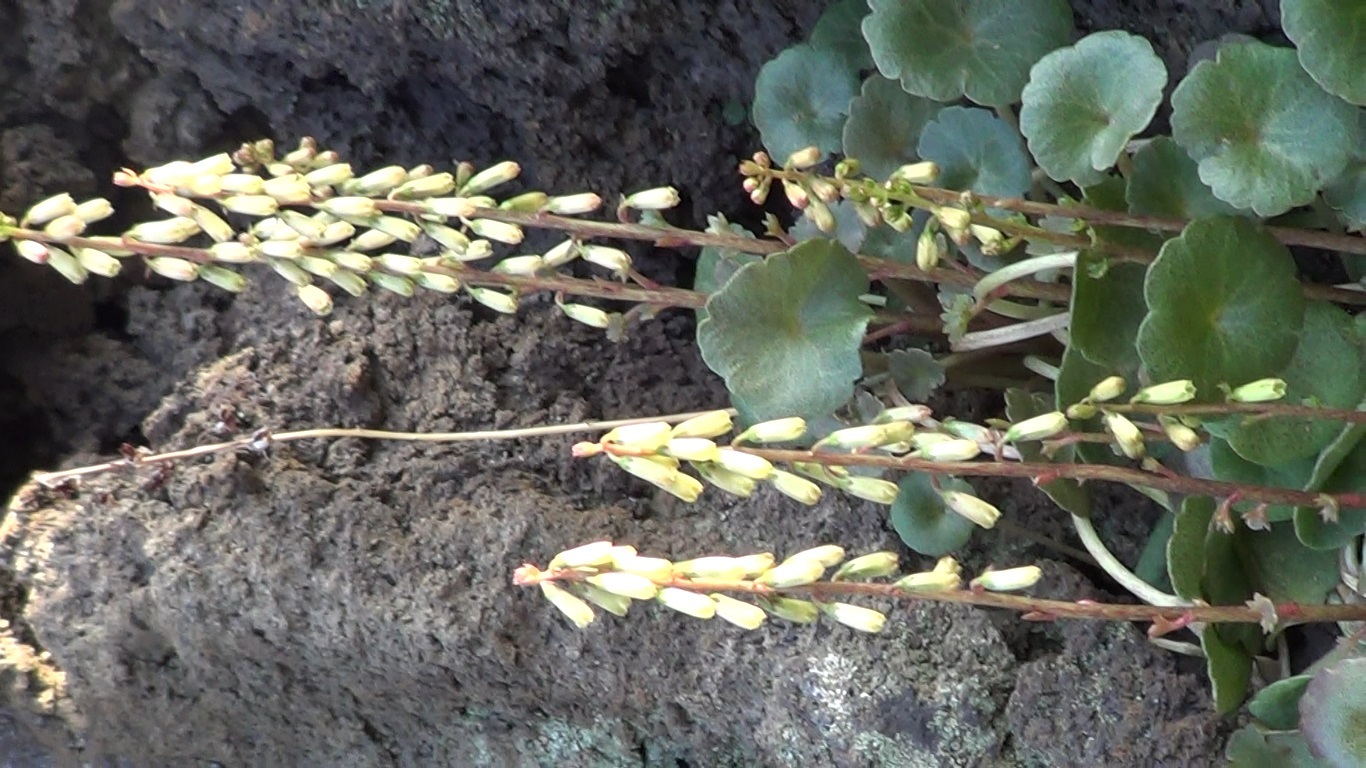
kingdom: Plantae
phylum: Tracheophyta
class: Magnoliopsida
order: Saxifragales
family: Crassulaceae
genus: Umbilicus
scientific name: Umbilicus rupestris
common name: Navelwort
